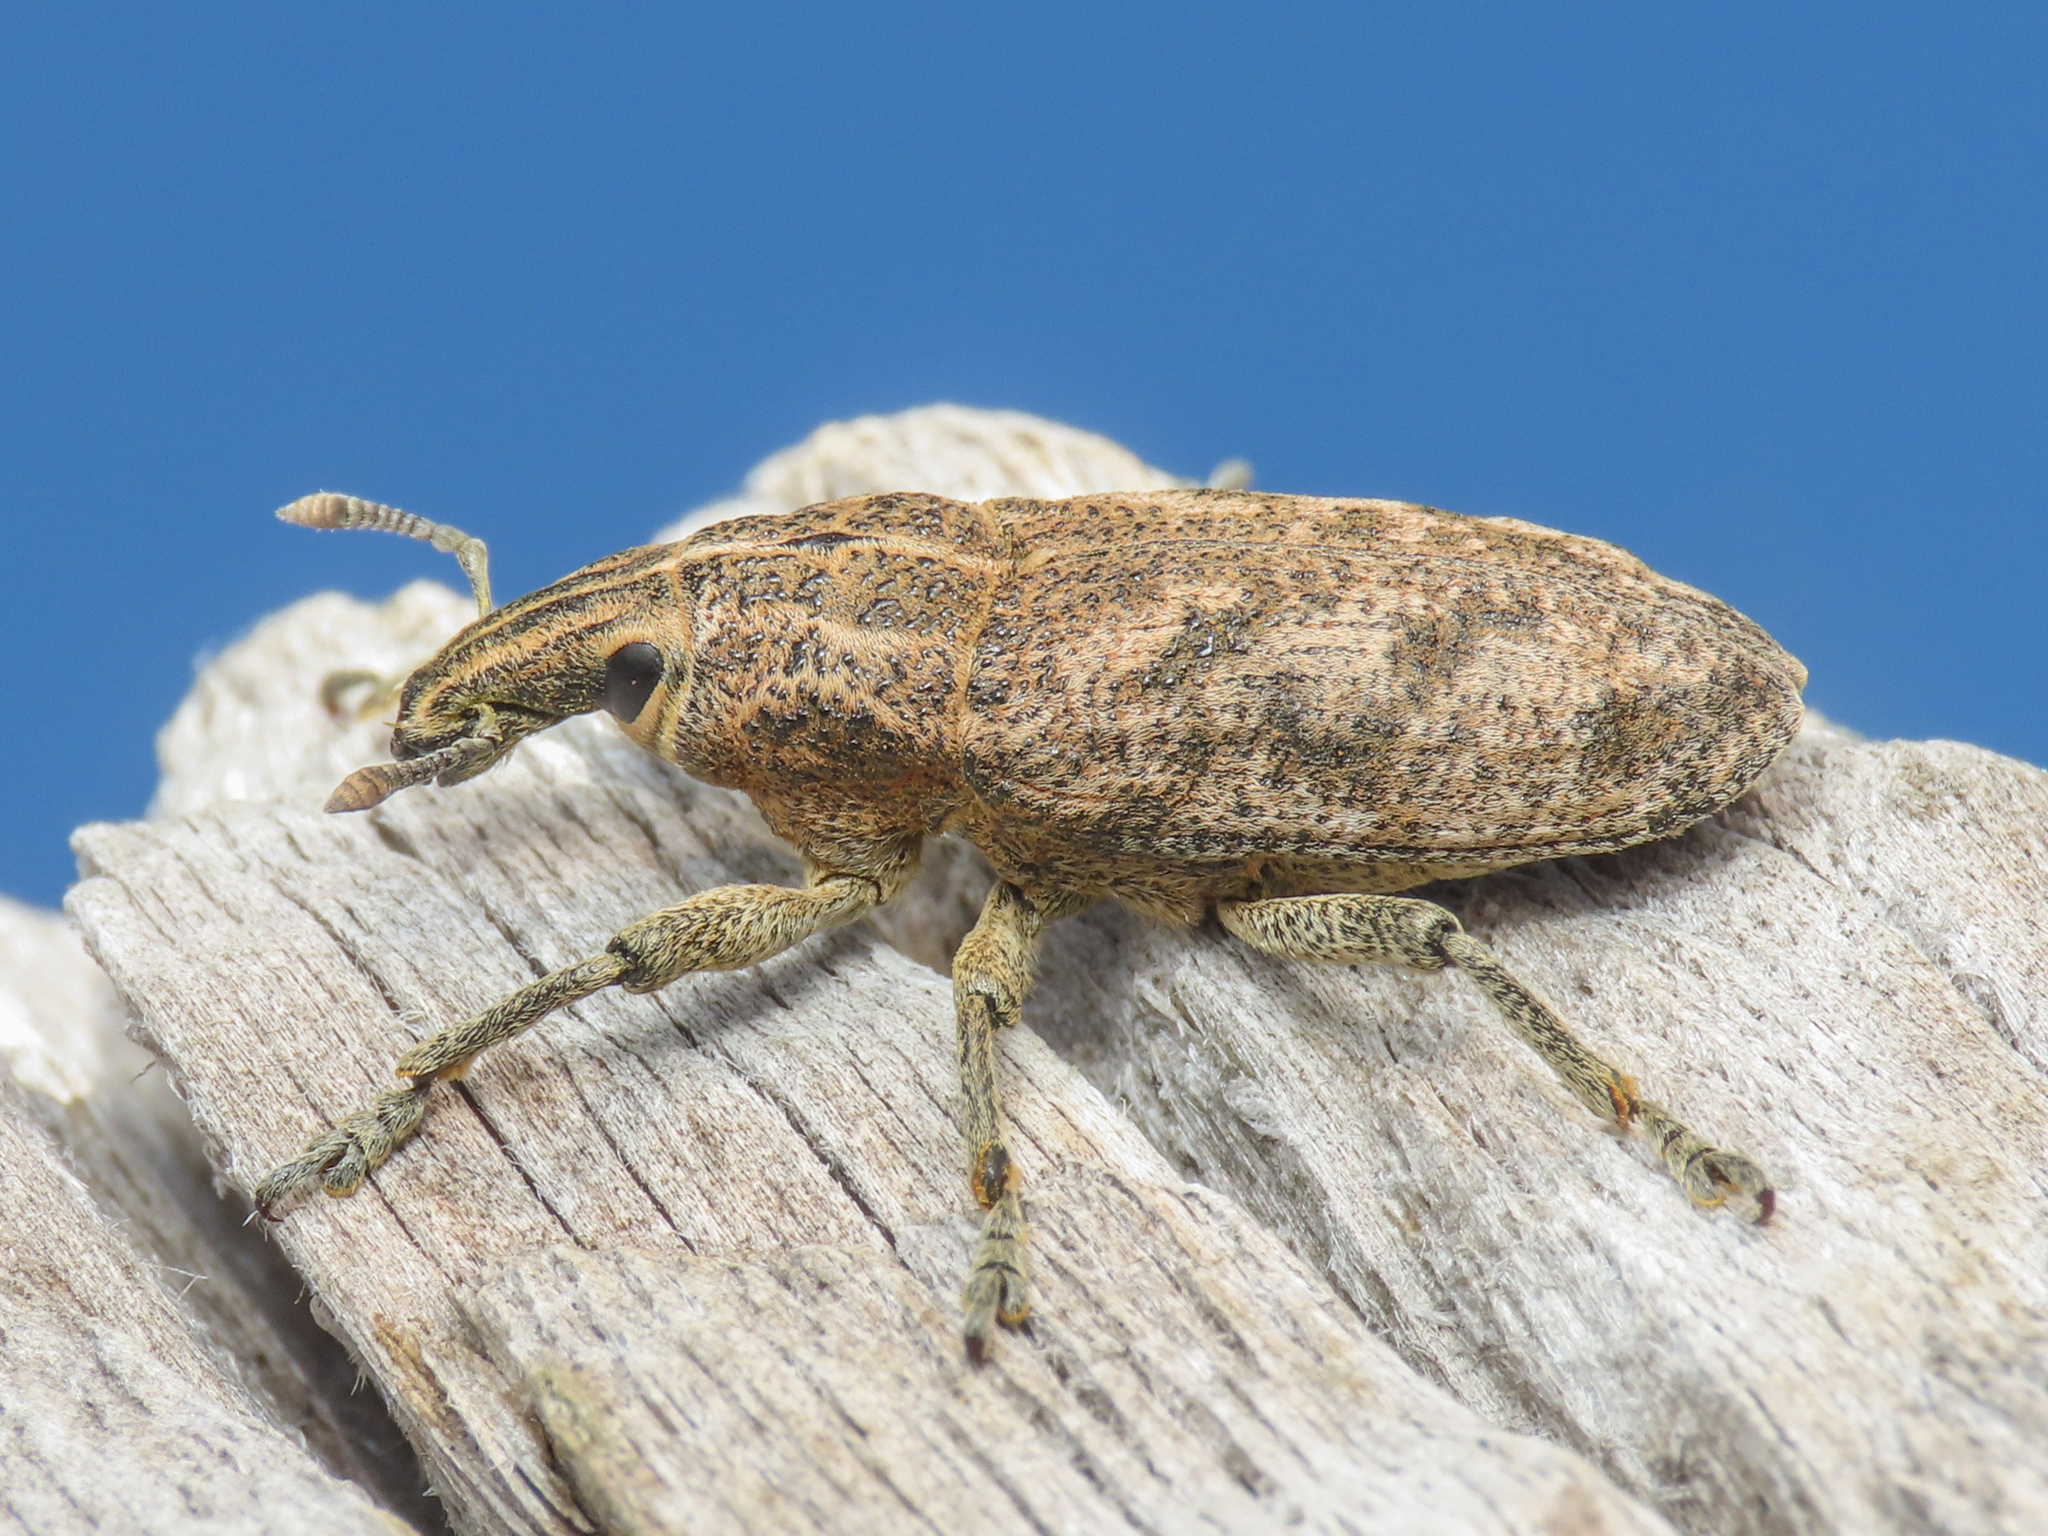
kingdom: Animalia
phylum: Arthropoda
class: Insecta
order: Coleoptera
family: Curculionidae
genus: Cleonis
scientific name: Cleonis pigra
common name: Large thistle weevil
